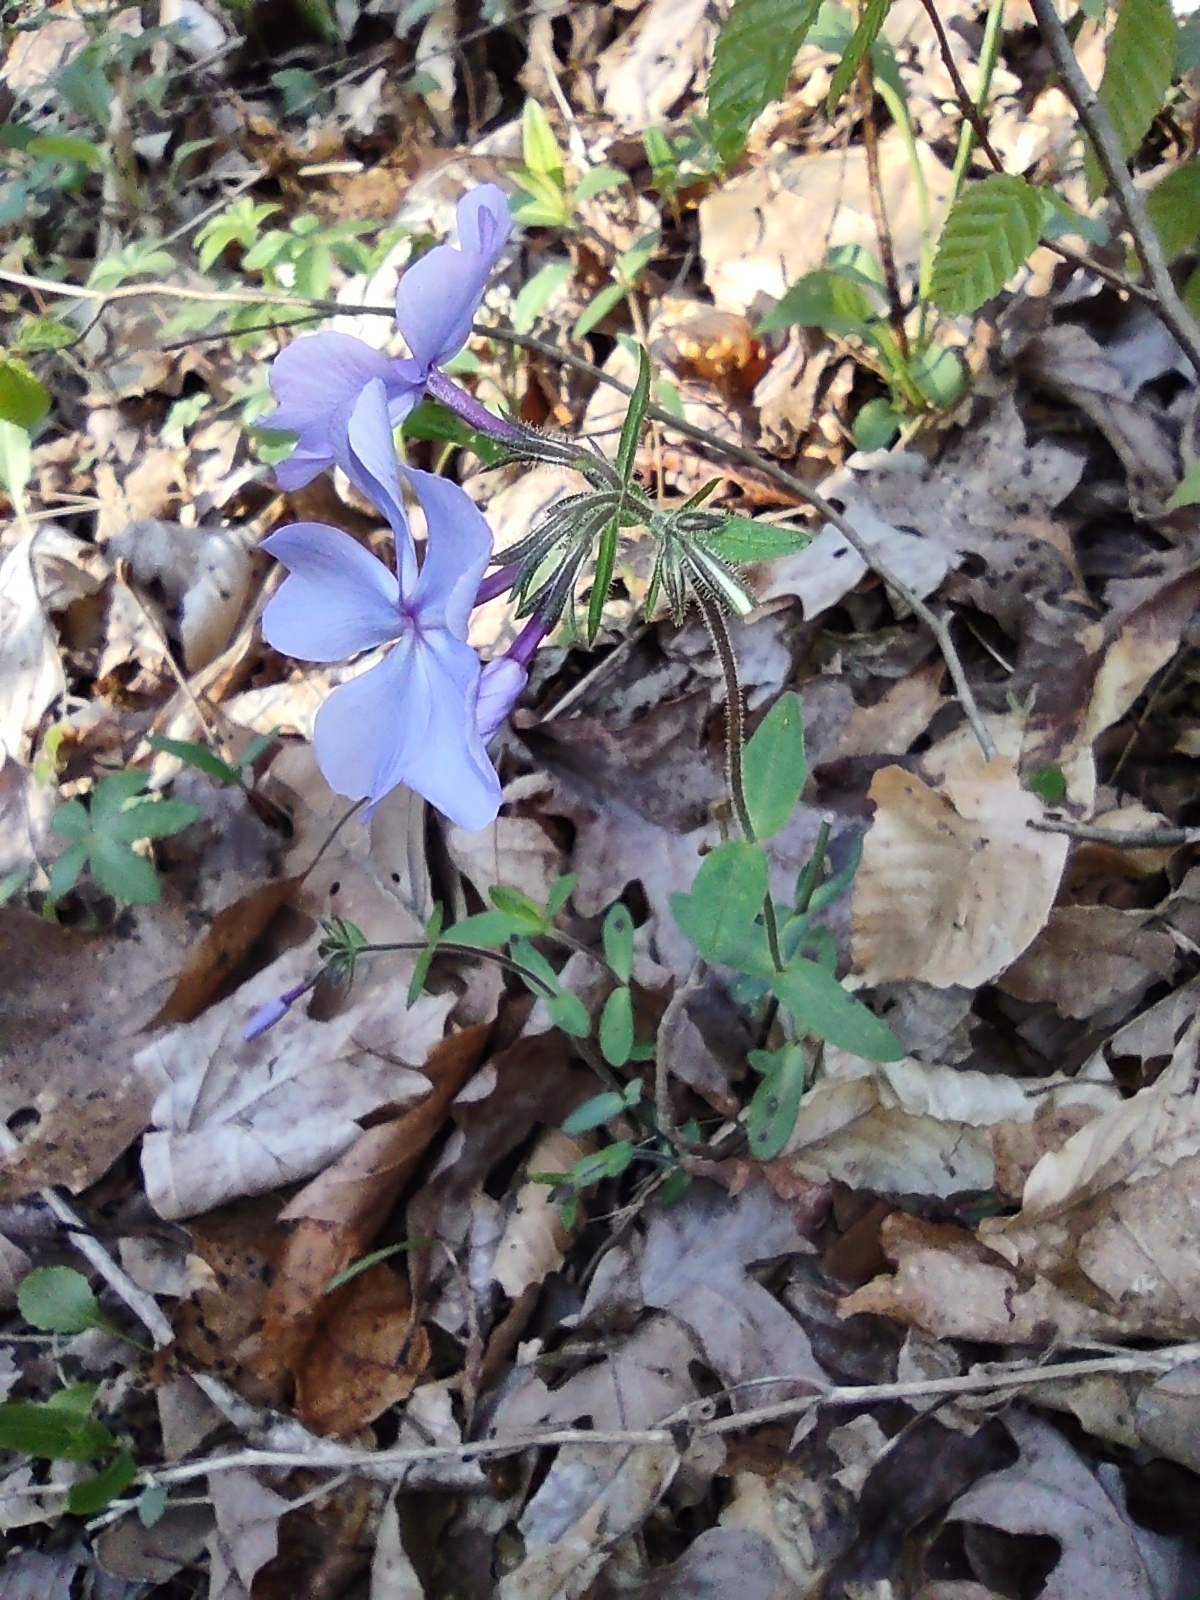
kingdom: Plantae
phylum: Tracheophyta
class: Magnoliopsida
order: Ericales
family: Polemoniaceae
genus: Phlox
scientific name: Phlox divaricata
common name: Blue phlox
